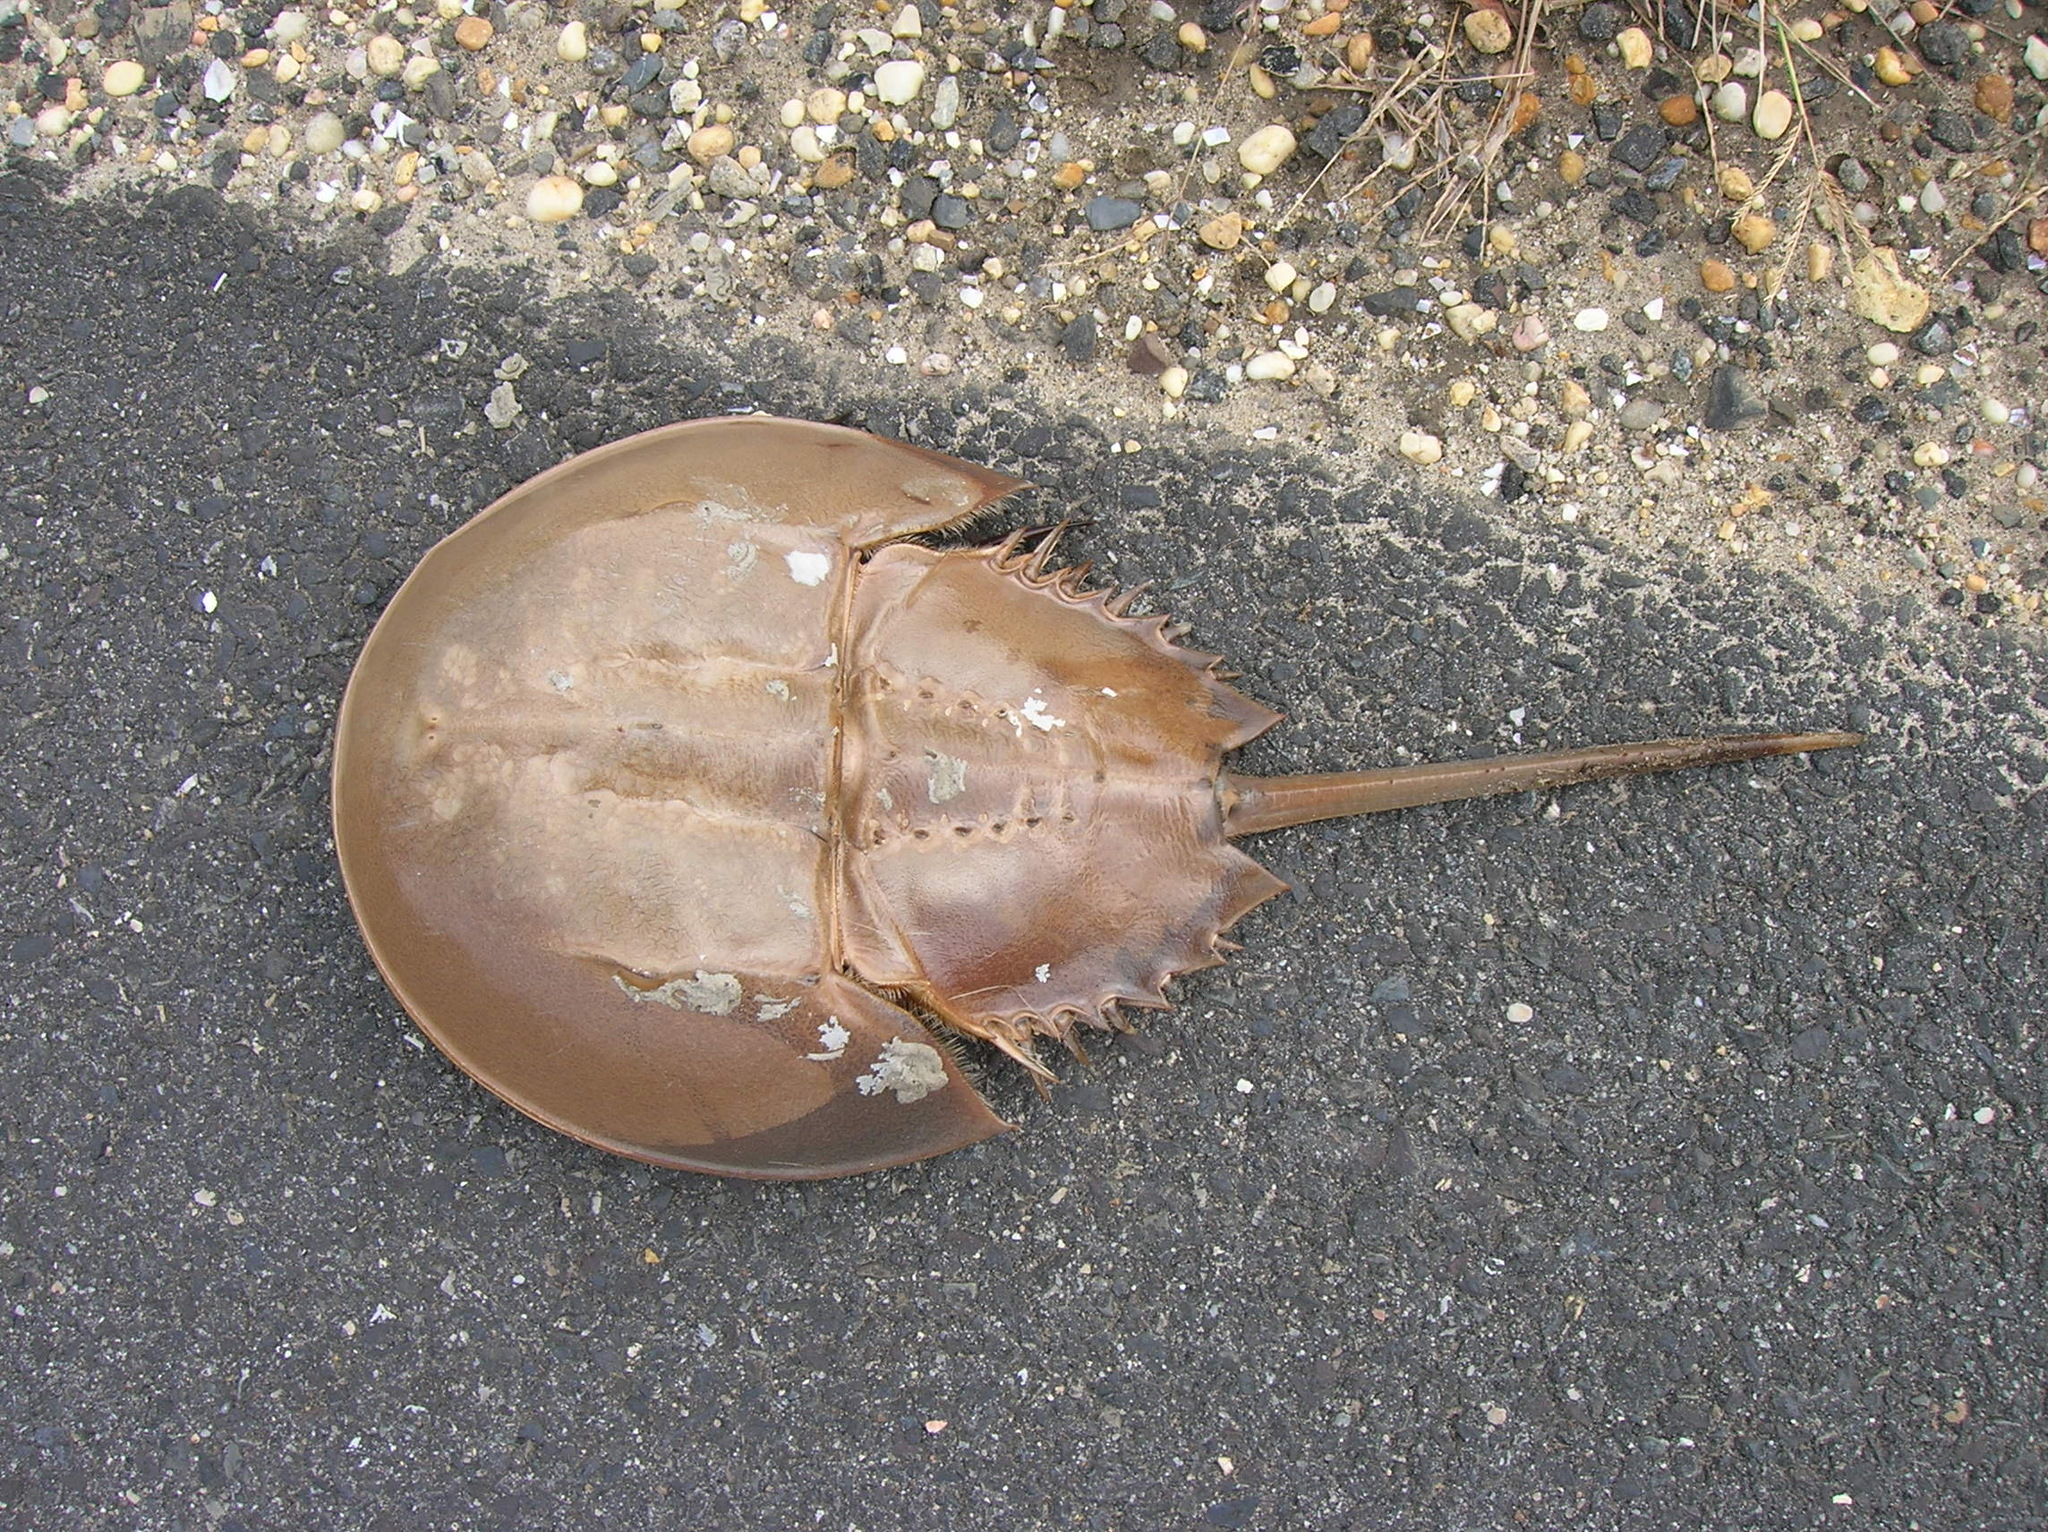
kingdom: Animalia
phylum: Arthropoda
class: Merostomata
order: Xiphosurida
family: Limulidae
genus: Limulus
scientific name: Limulus polyphemus
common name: Horseshoe crab
